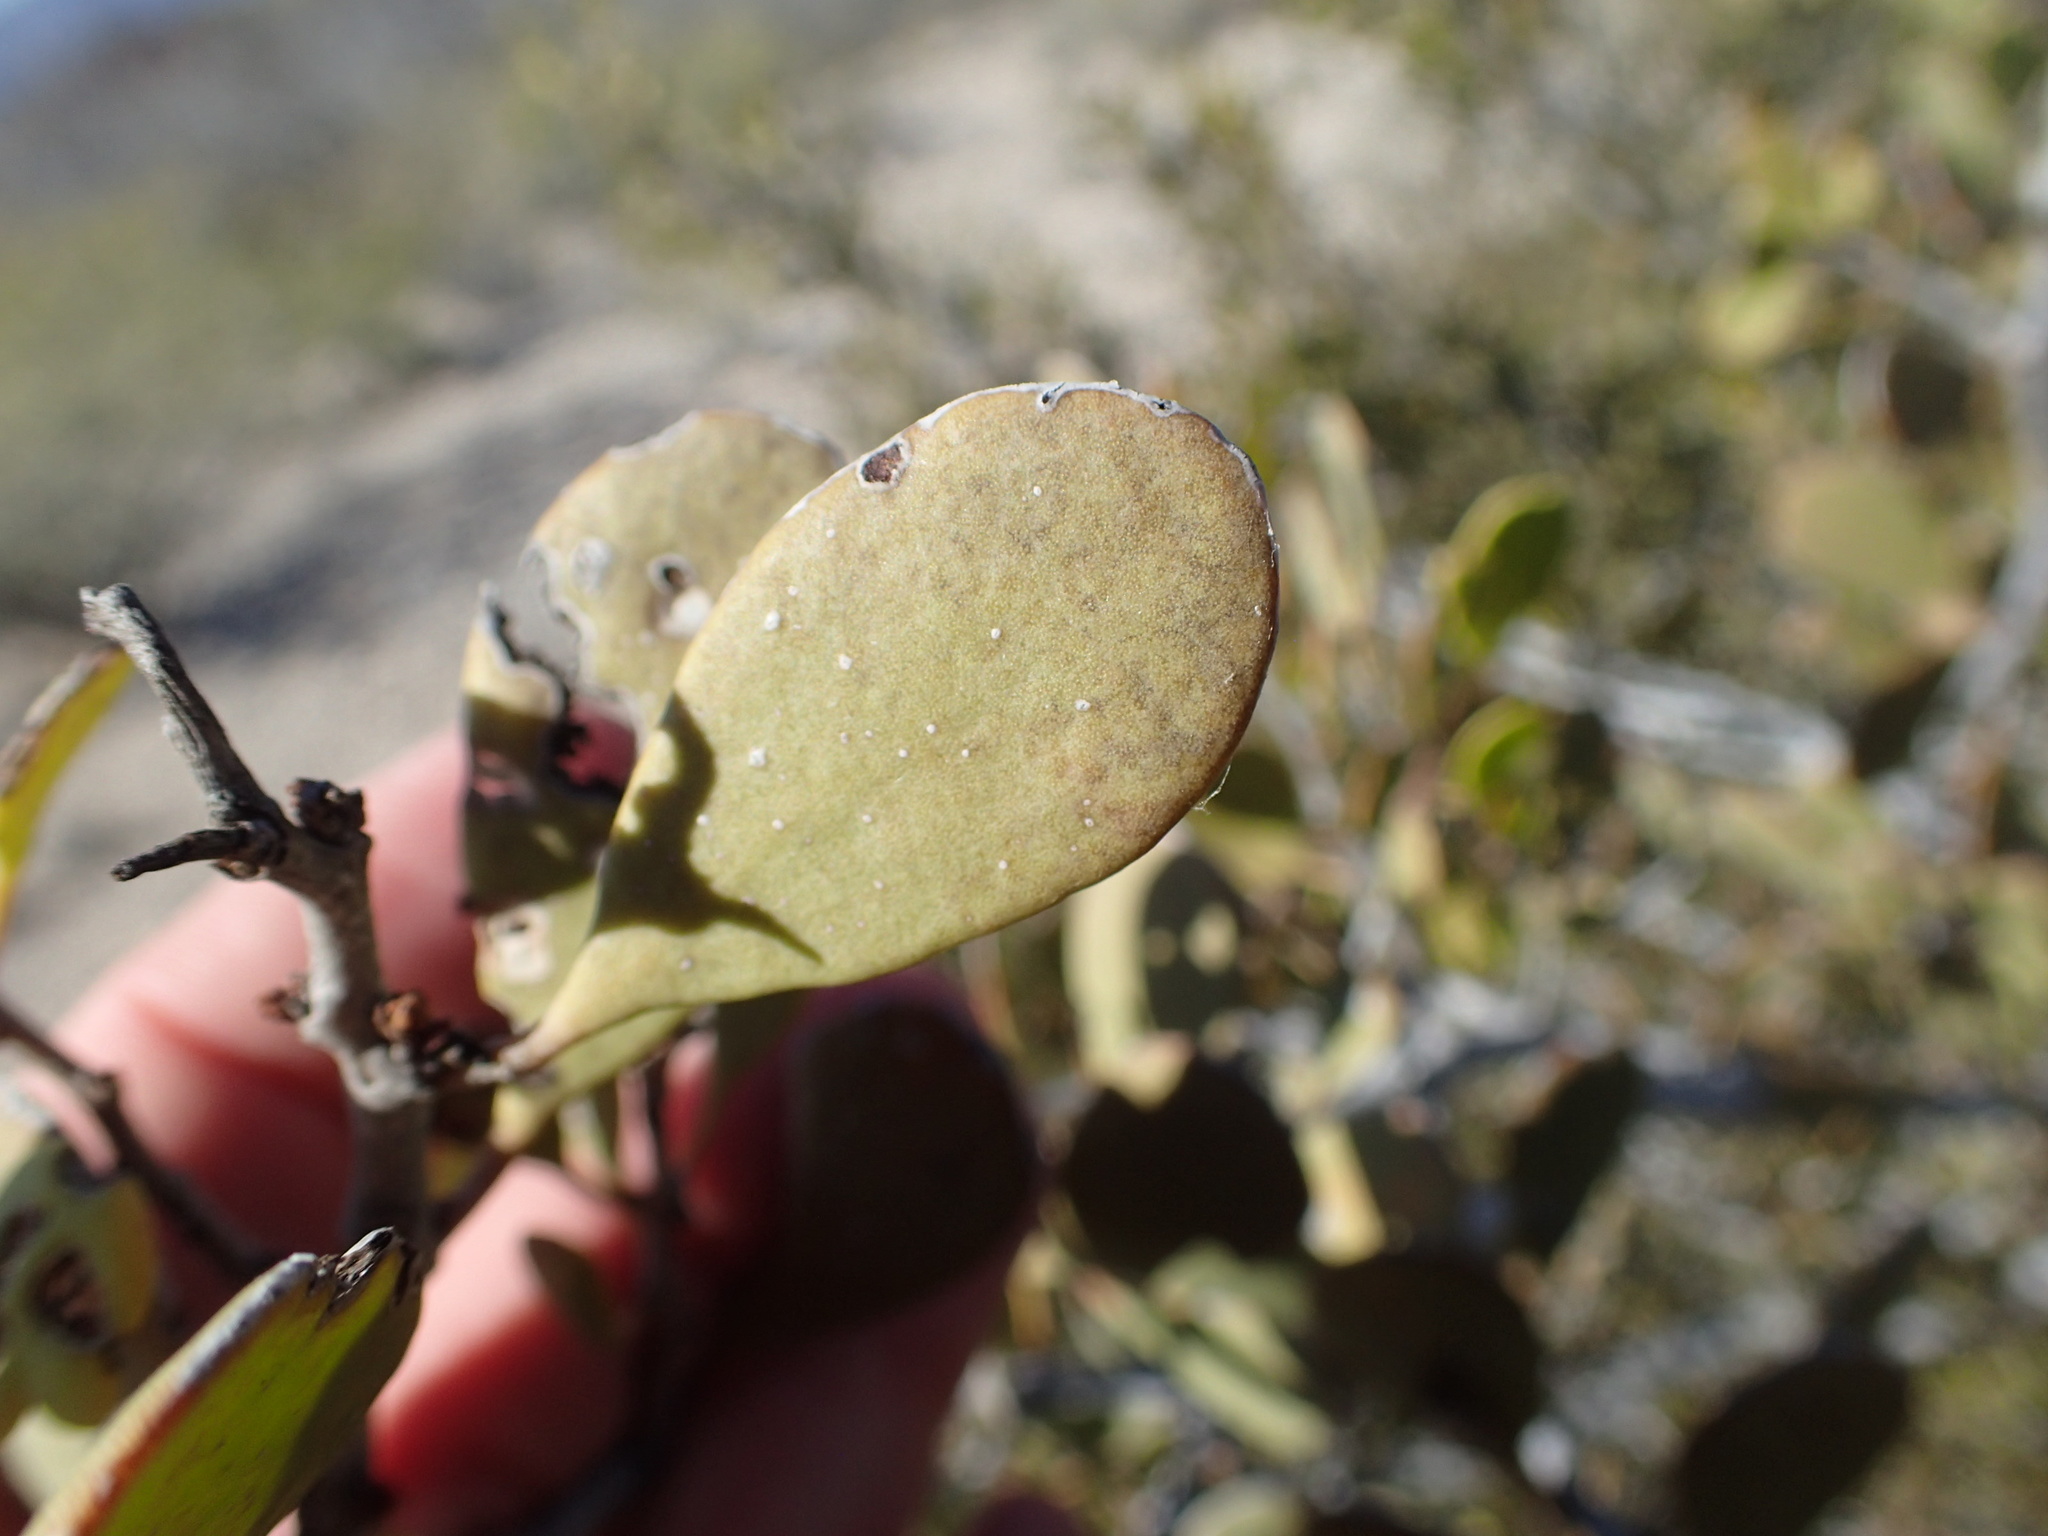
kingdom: Plantae
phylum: Tracheophyta
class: Magnoliopsida
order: Celastrales
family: Celastraceae
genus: Tricerma
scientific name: Tricerma phyllanthoides
